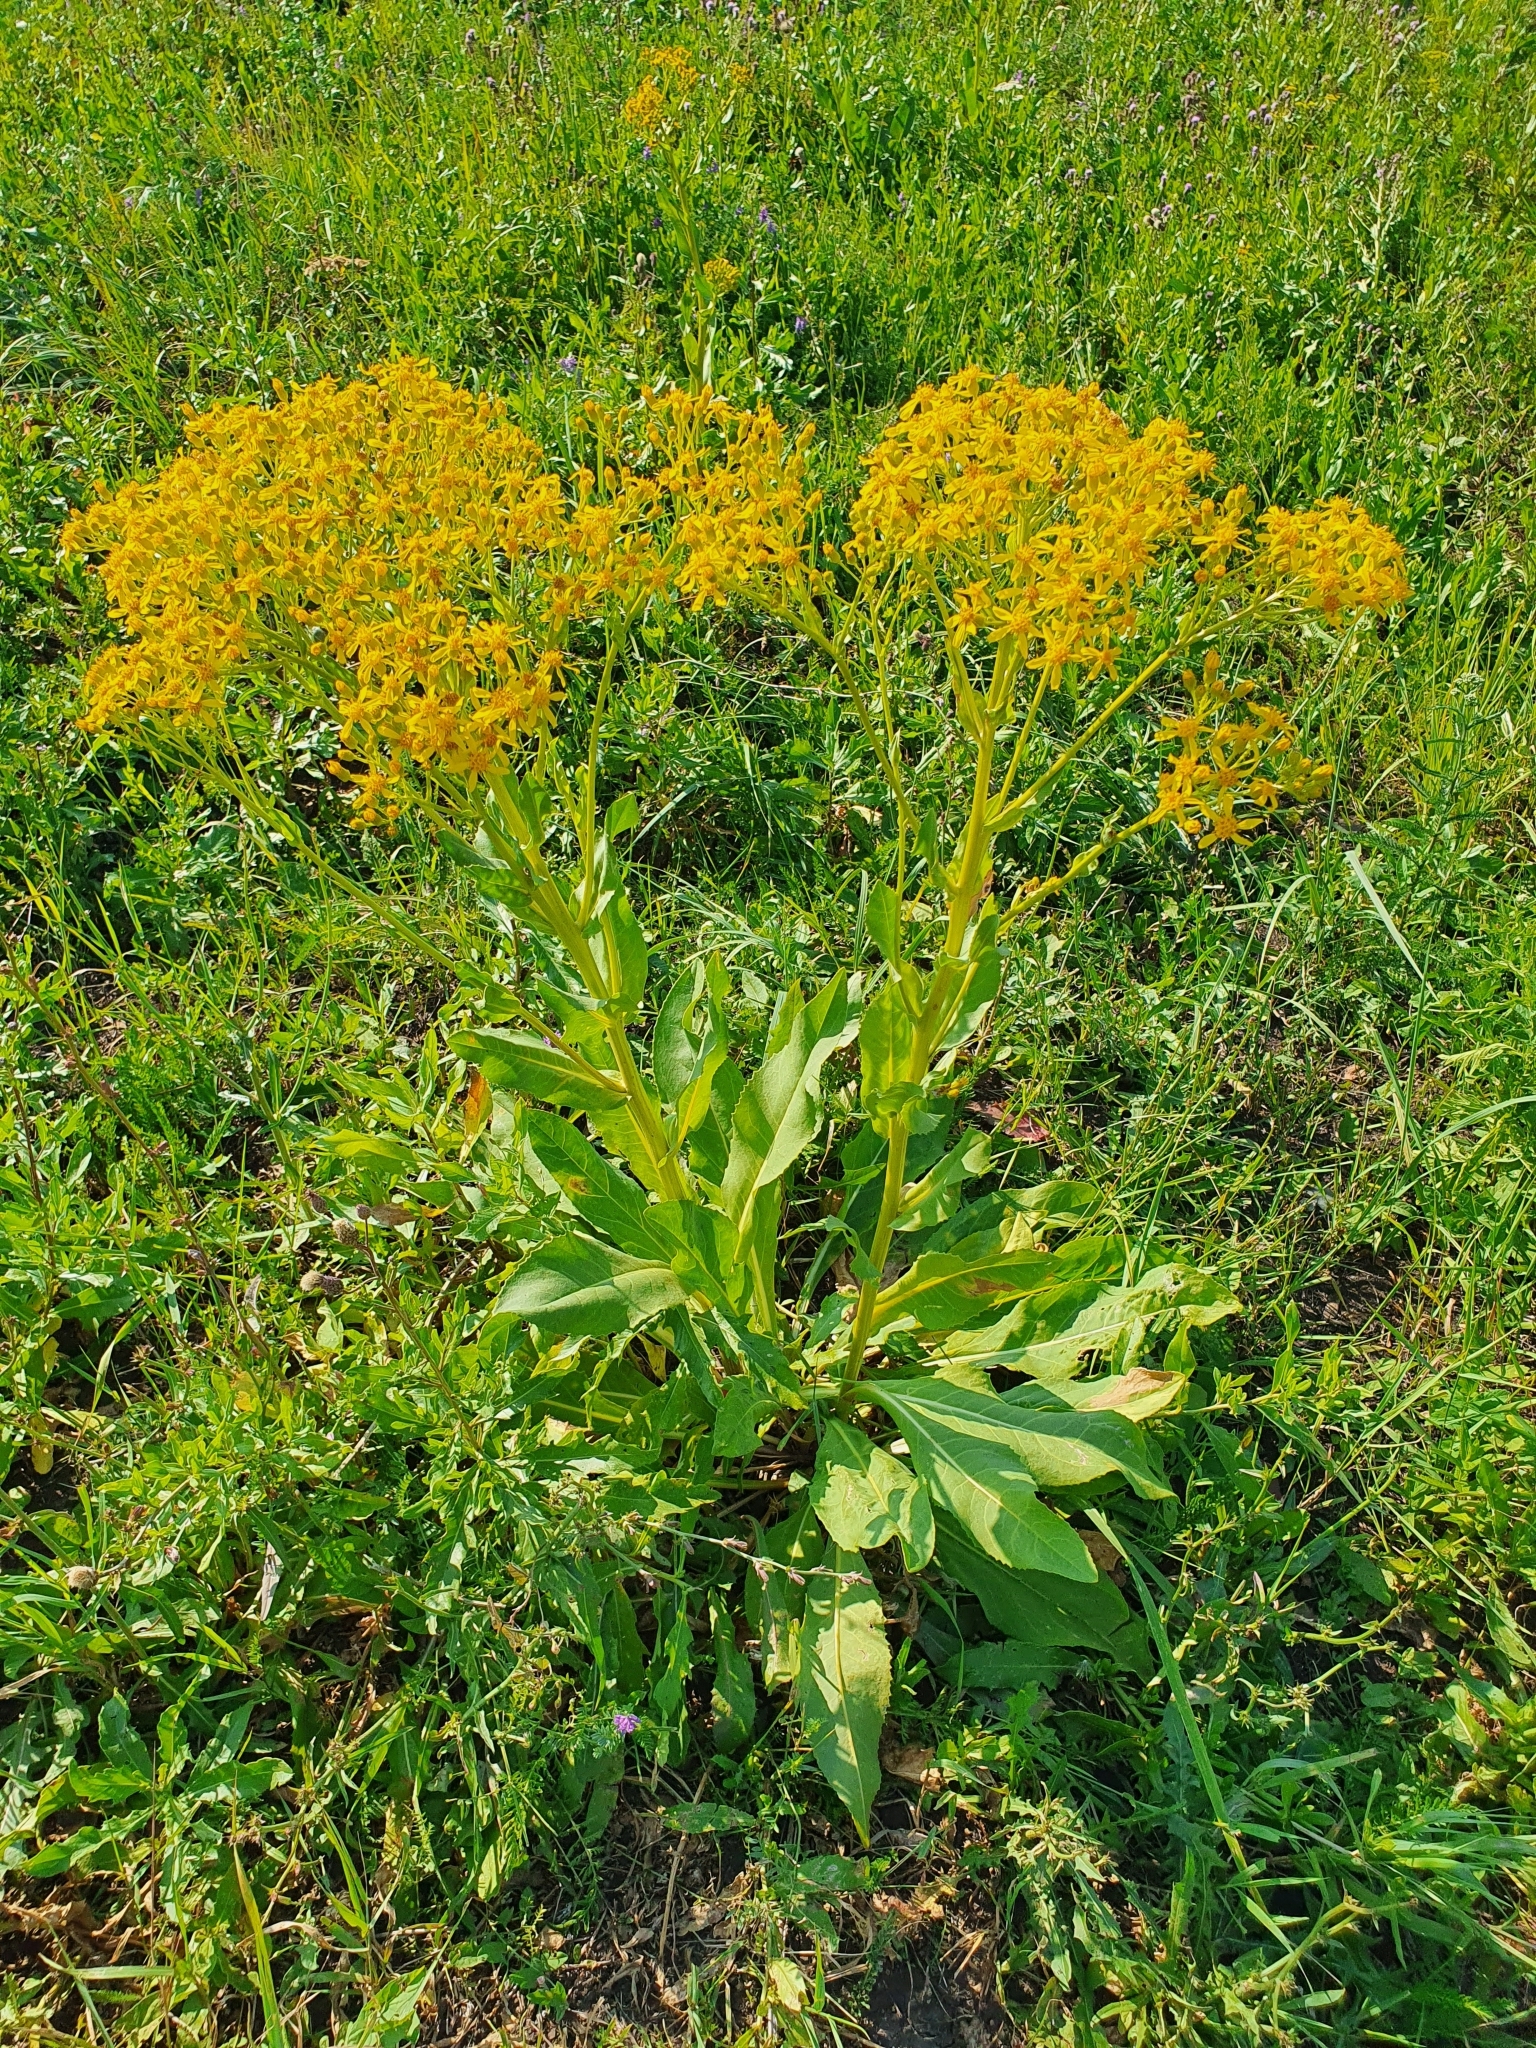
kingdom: Plantae
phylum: Tracheophyta
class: Magnoliopsida
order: Asterales
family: Asteraceae
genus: Senecio
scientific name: Senecio doria
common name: Golden ragwort
